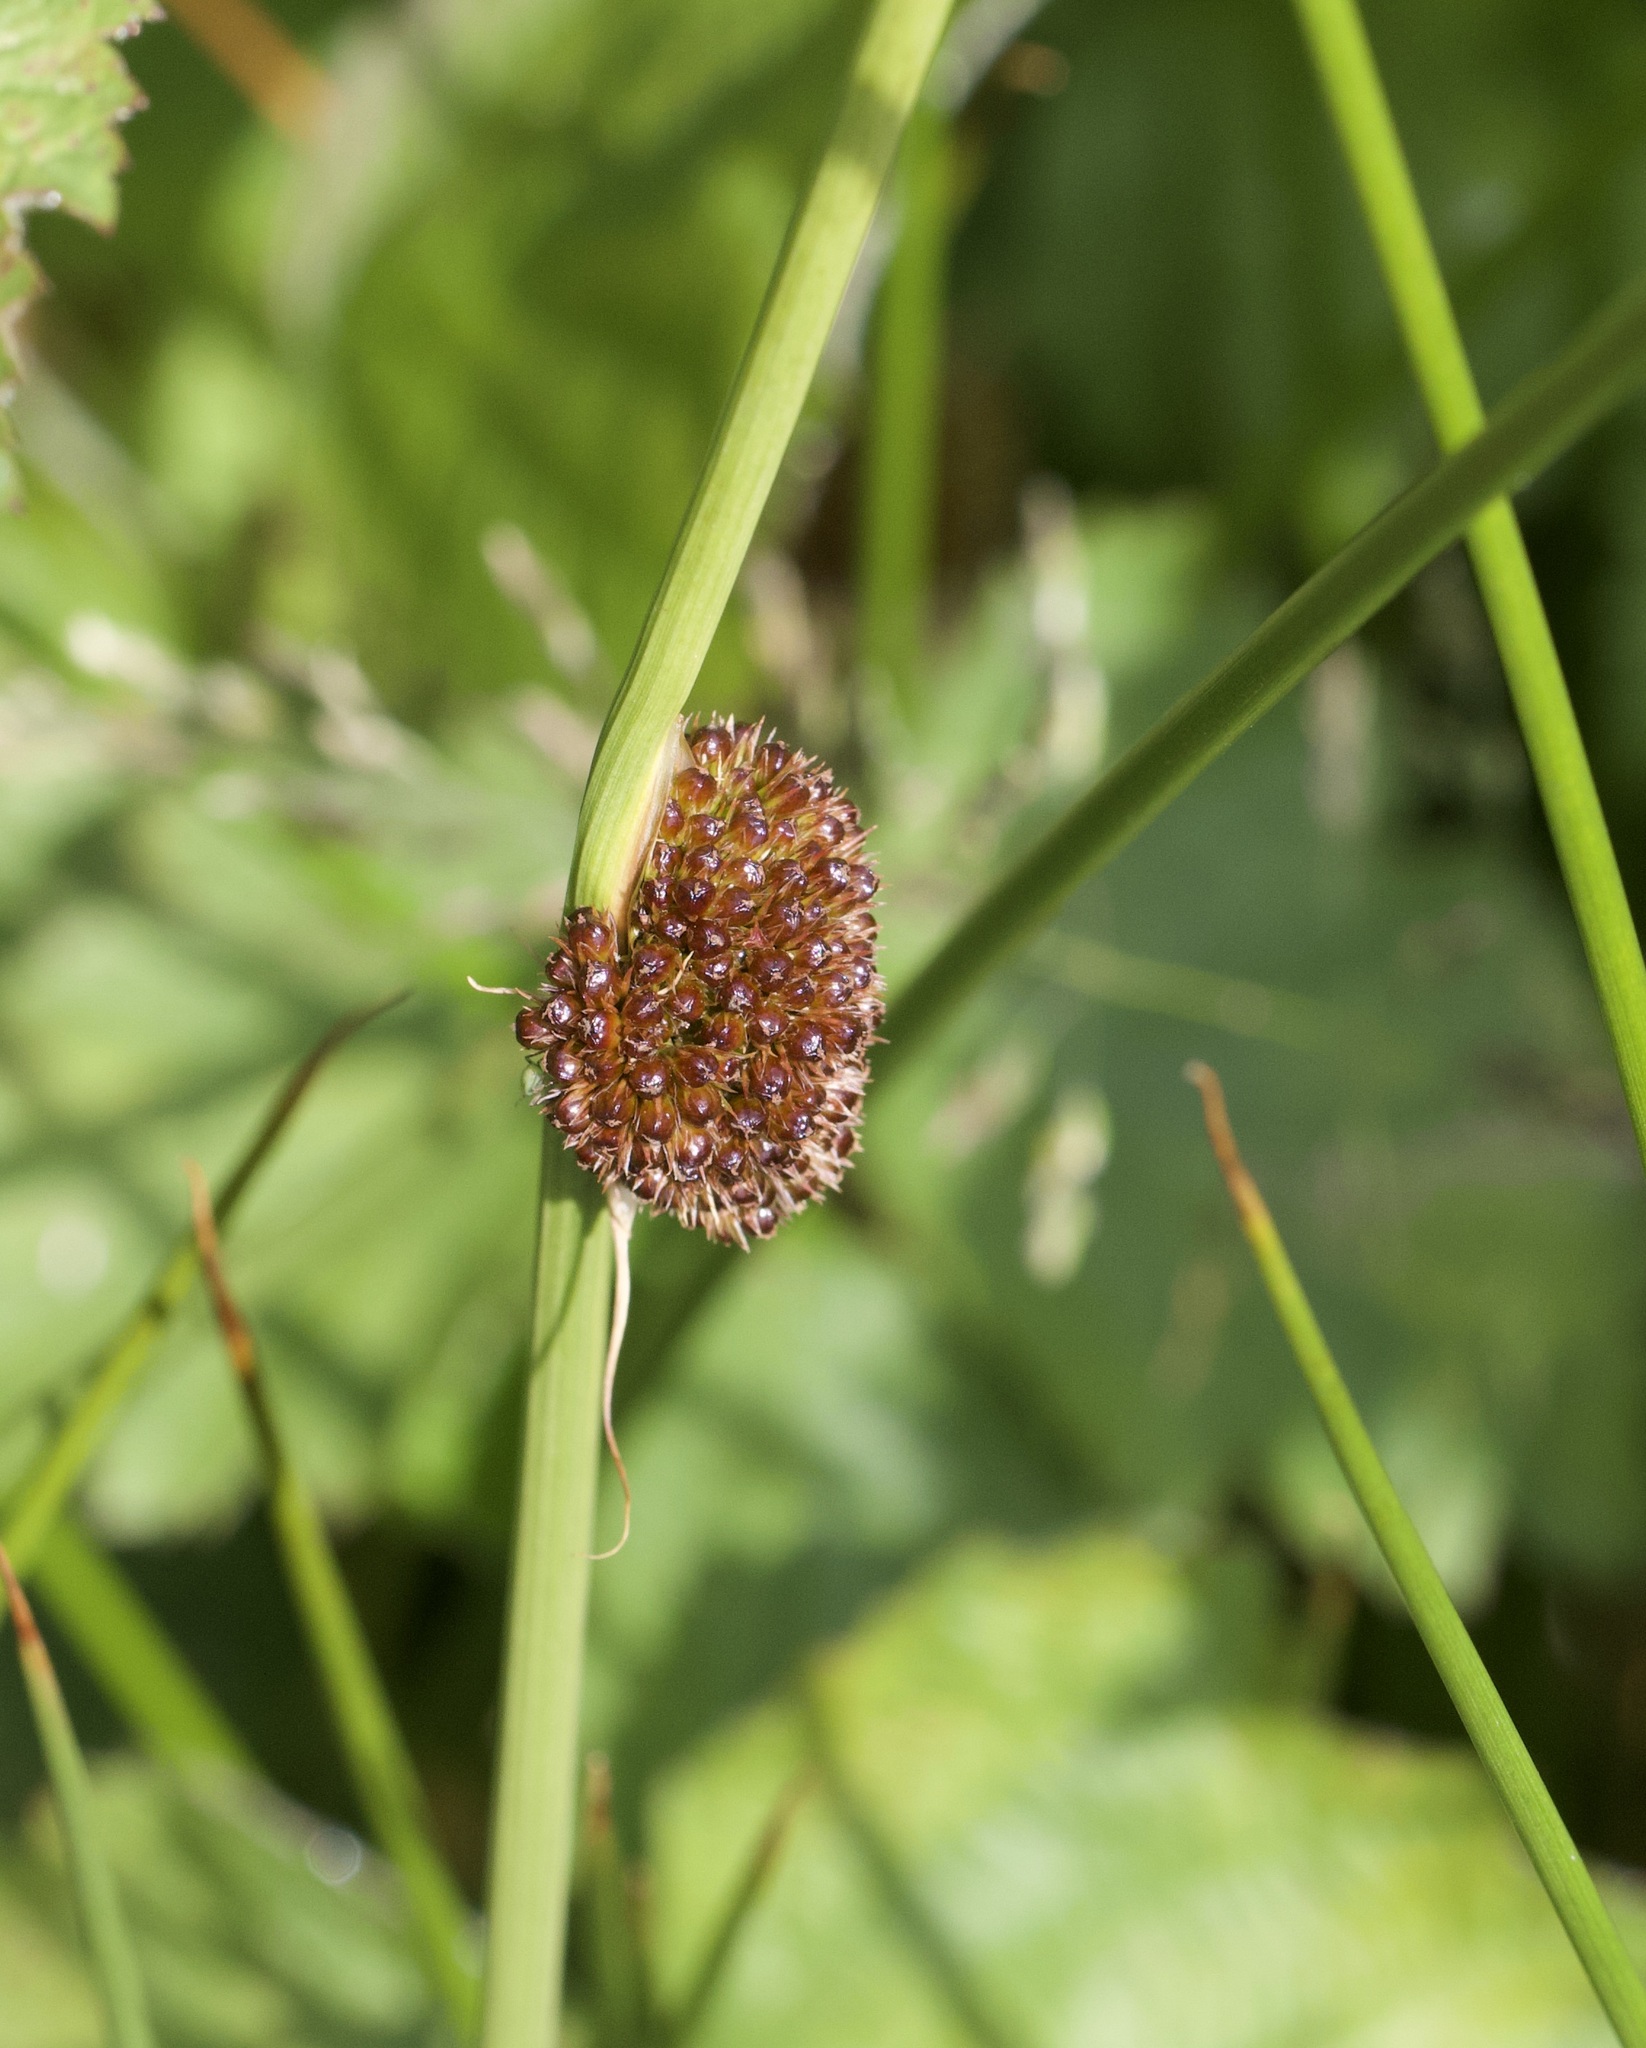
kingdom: Plantae
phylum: Tracheophyta
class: Liliopsida
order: Poales
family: Juncaceae
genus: Juncus
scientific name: Juncus conglomeratus
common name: Compact rush
